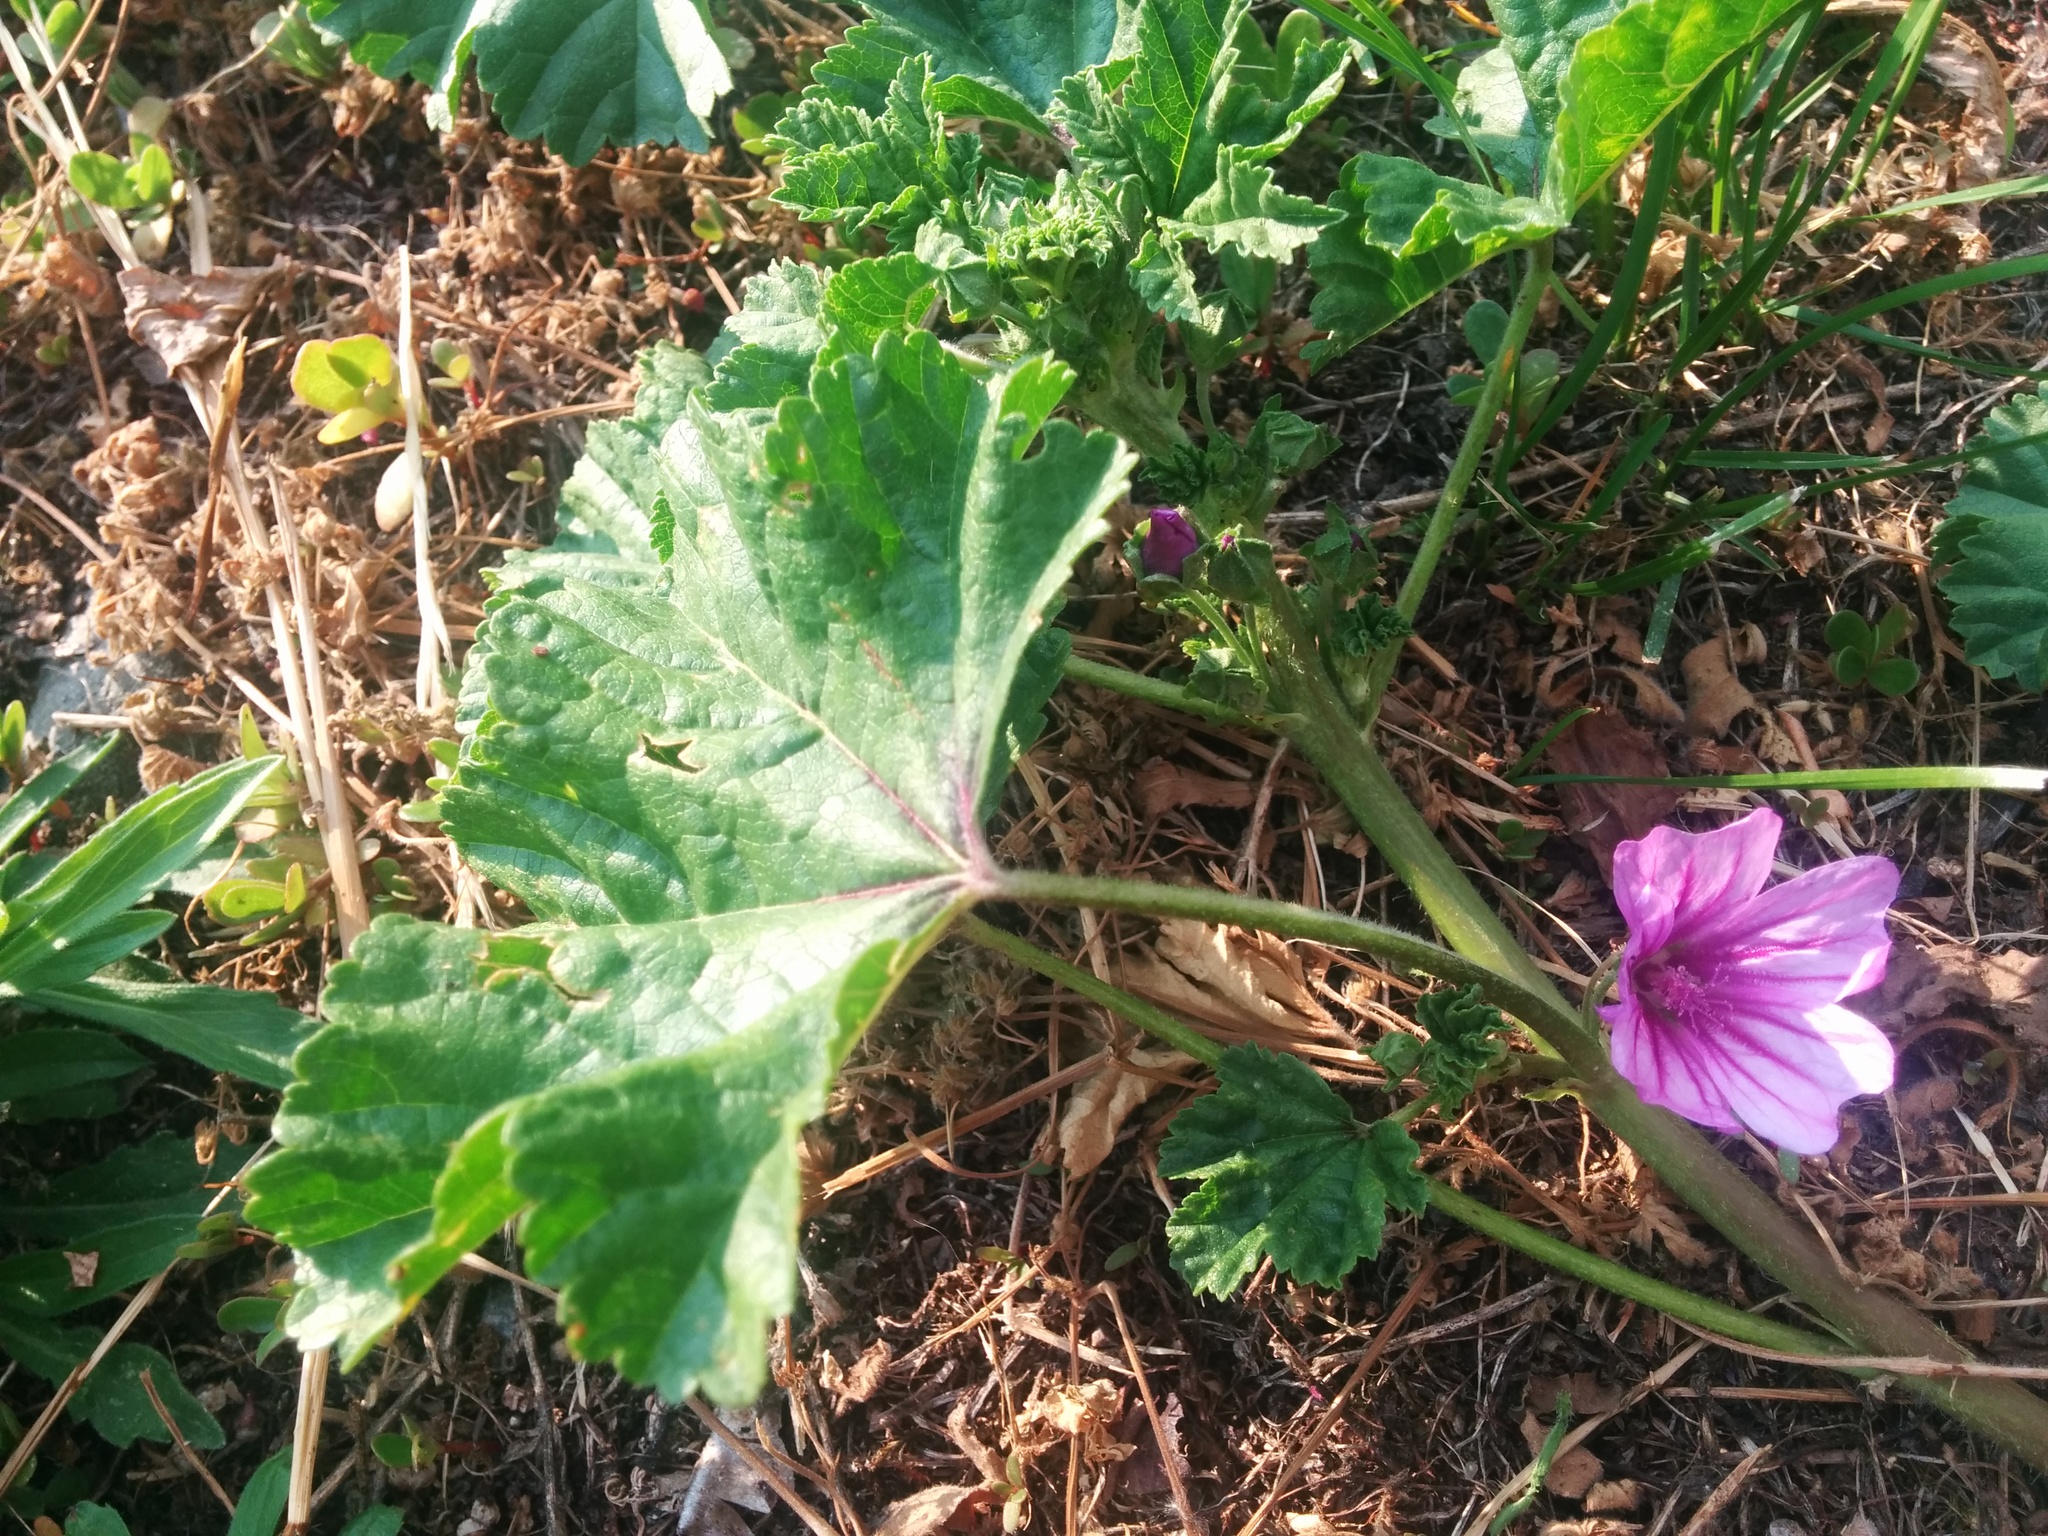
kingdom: Plantae
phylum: Tracheophyta
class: Magnoliopsida
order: Malvales
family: Malvaceae
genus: Malva
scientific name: Malva sylvestris
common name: Common mallow
